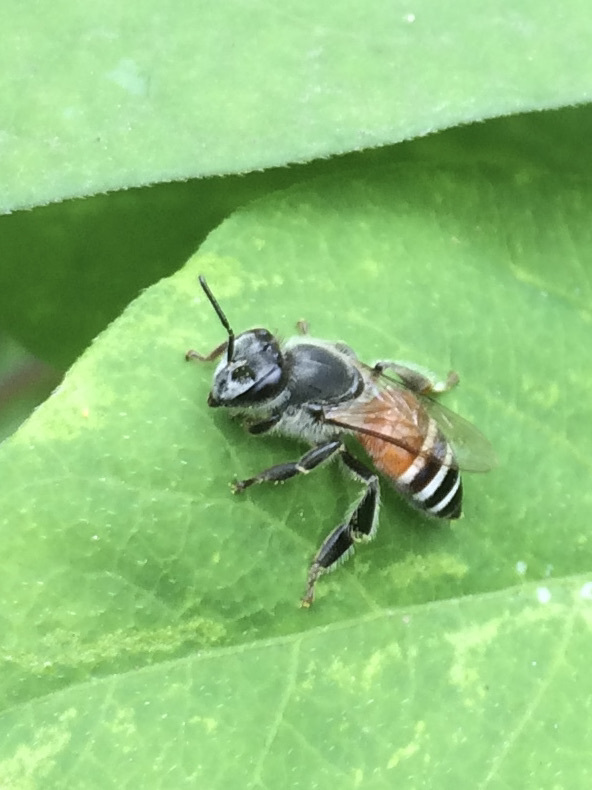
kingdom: Animalia
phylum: Arthropoda
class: Insecta
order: Hymenoptera
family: Apidae
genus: Apis
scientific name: Apis florea
